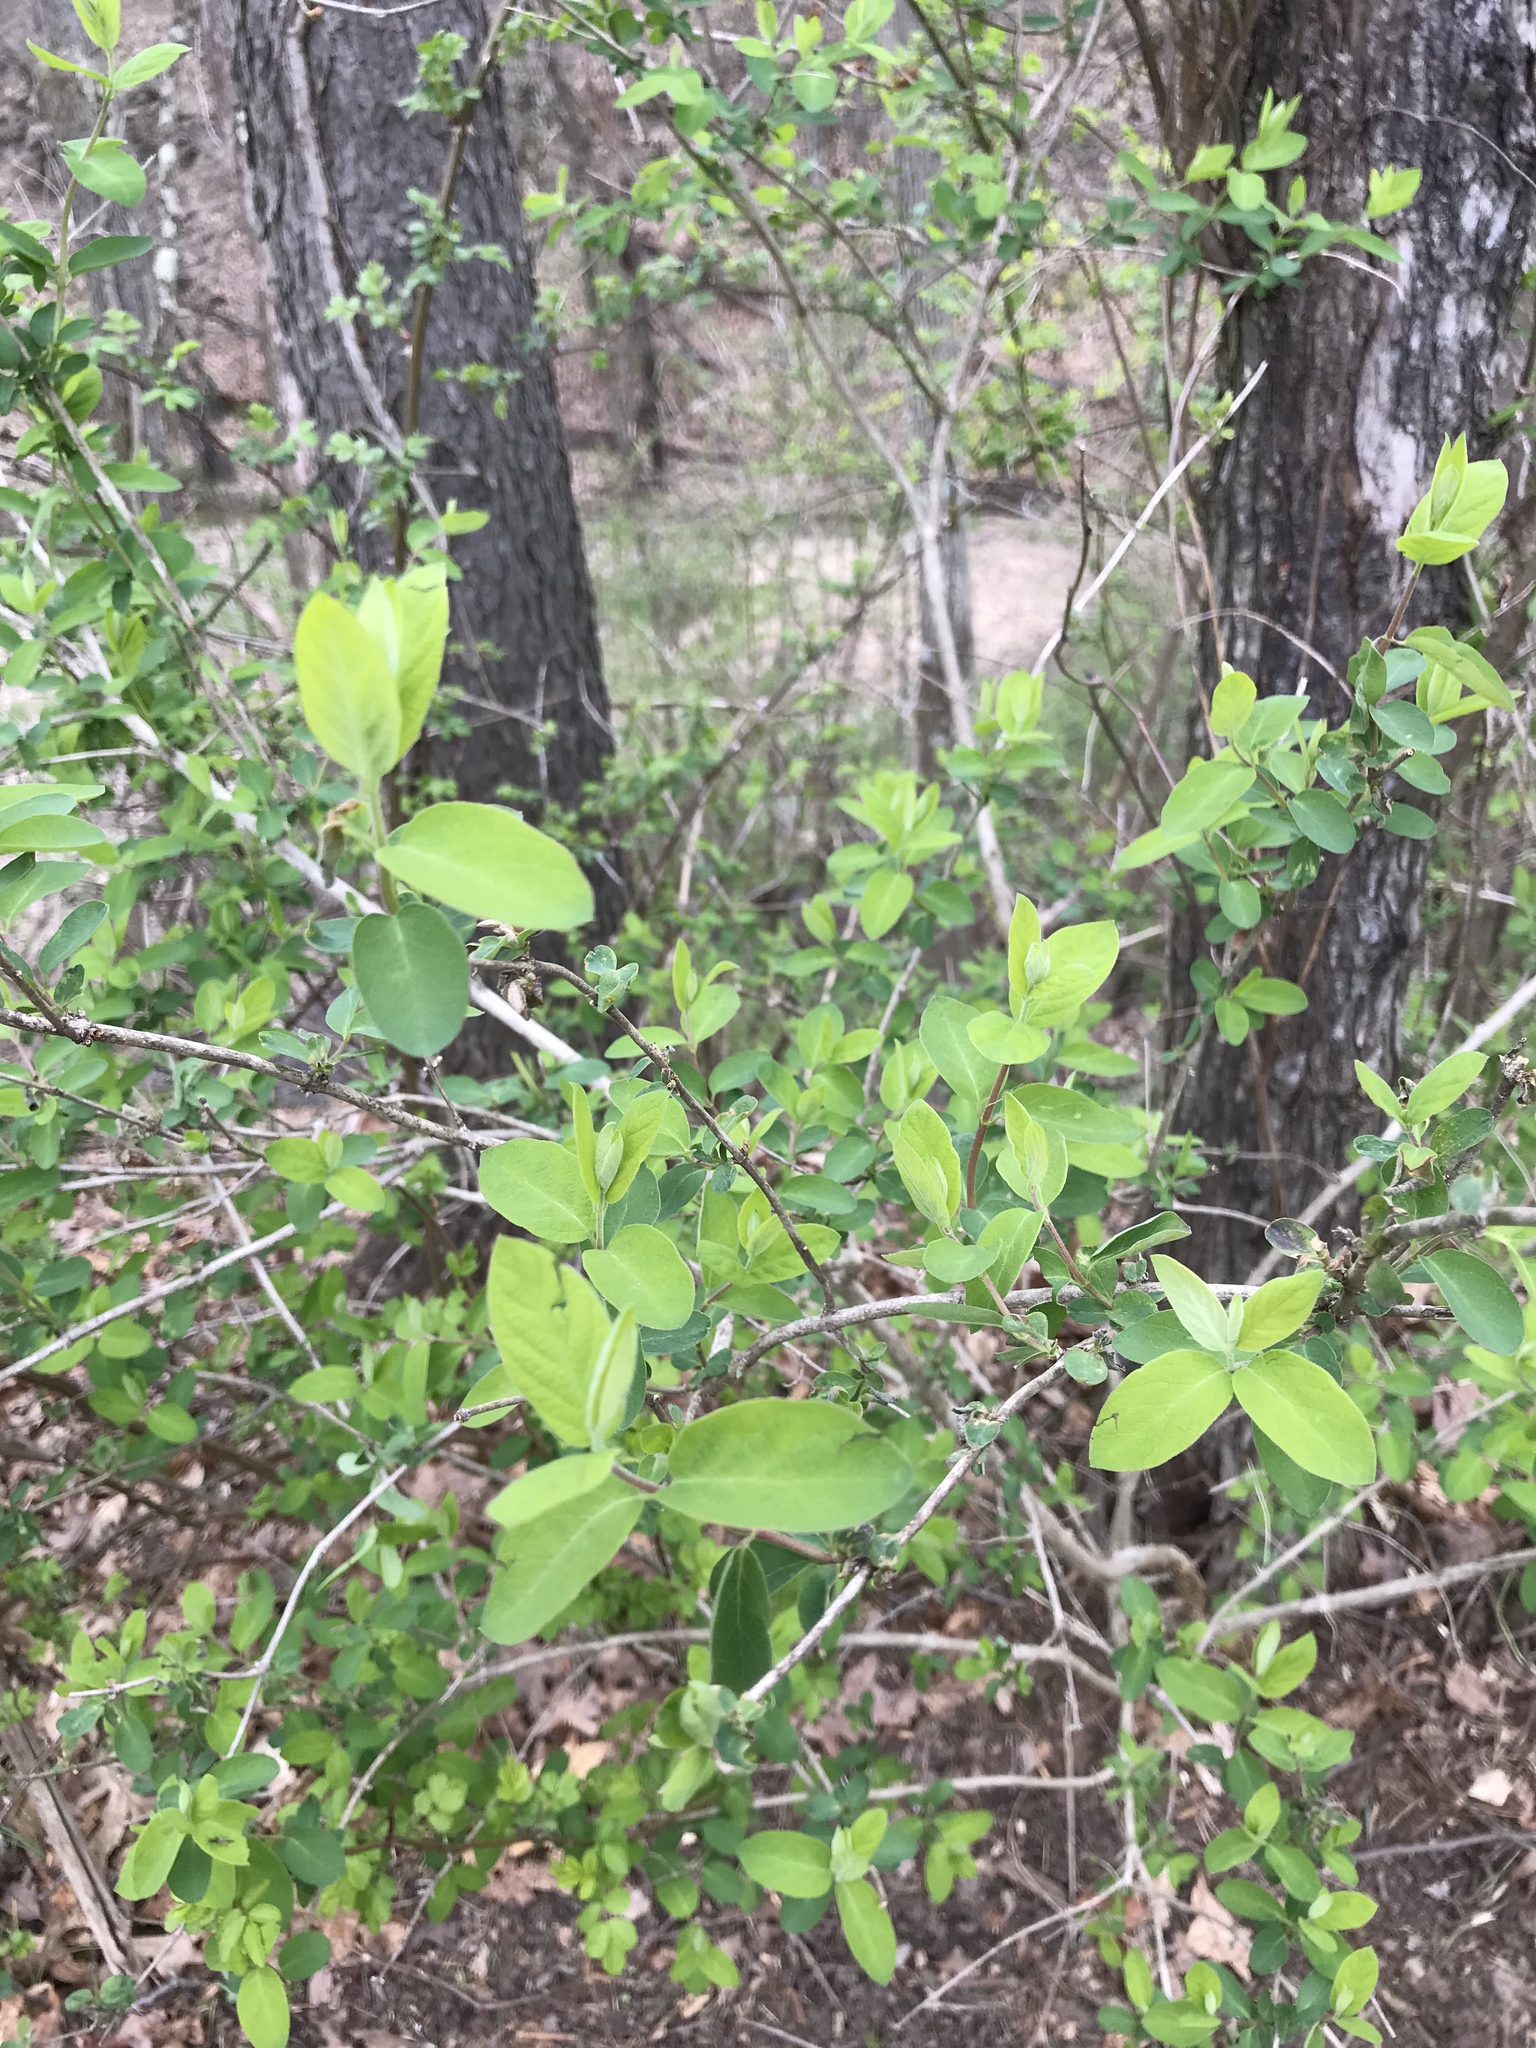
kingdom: Plantae
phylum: Tracheophyta
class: Magnoliopsida
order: Dipsacales
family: Caprifoliaceae
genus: Lonicera
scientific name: Lonicera morrowii
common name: Morrow's honeysuckle
